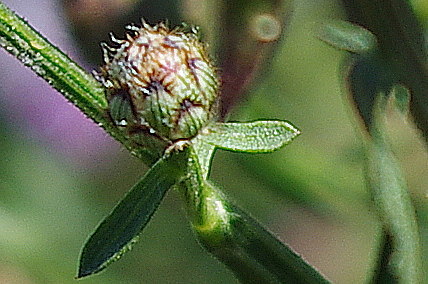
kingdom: Plantae
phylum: Tracheophyta
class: Magnoliopsida
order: Asterales
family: Asteraceae
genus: Centaurea
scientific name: Centaurea stoebe
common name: Spotted knapweed
